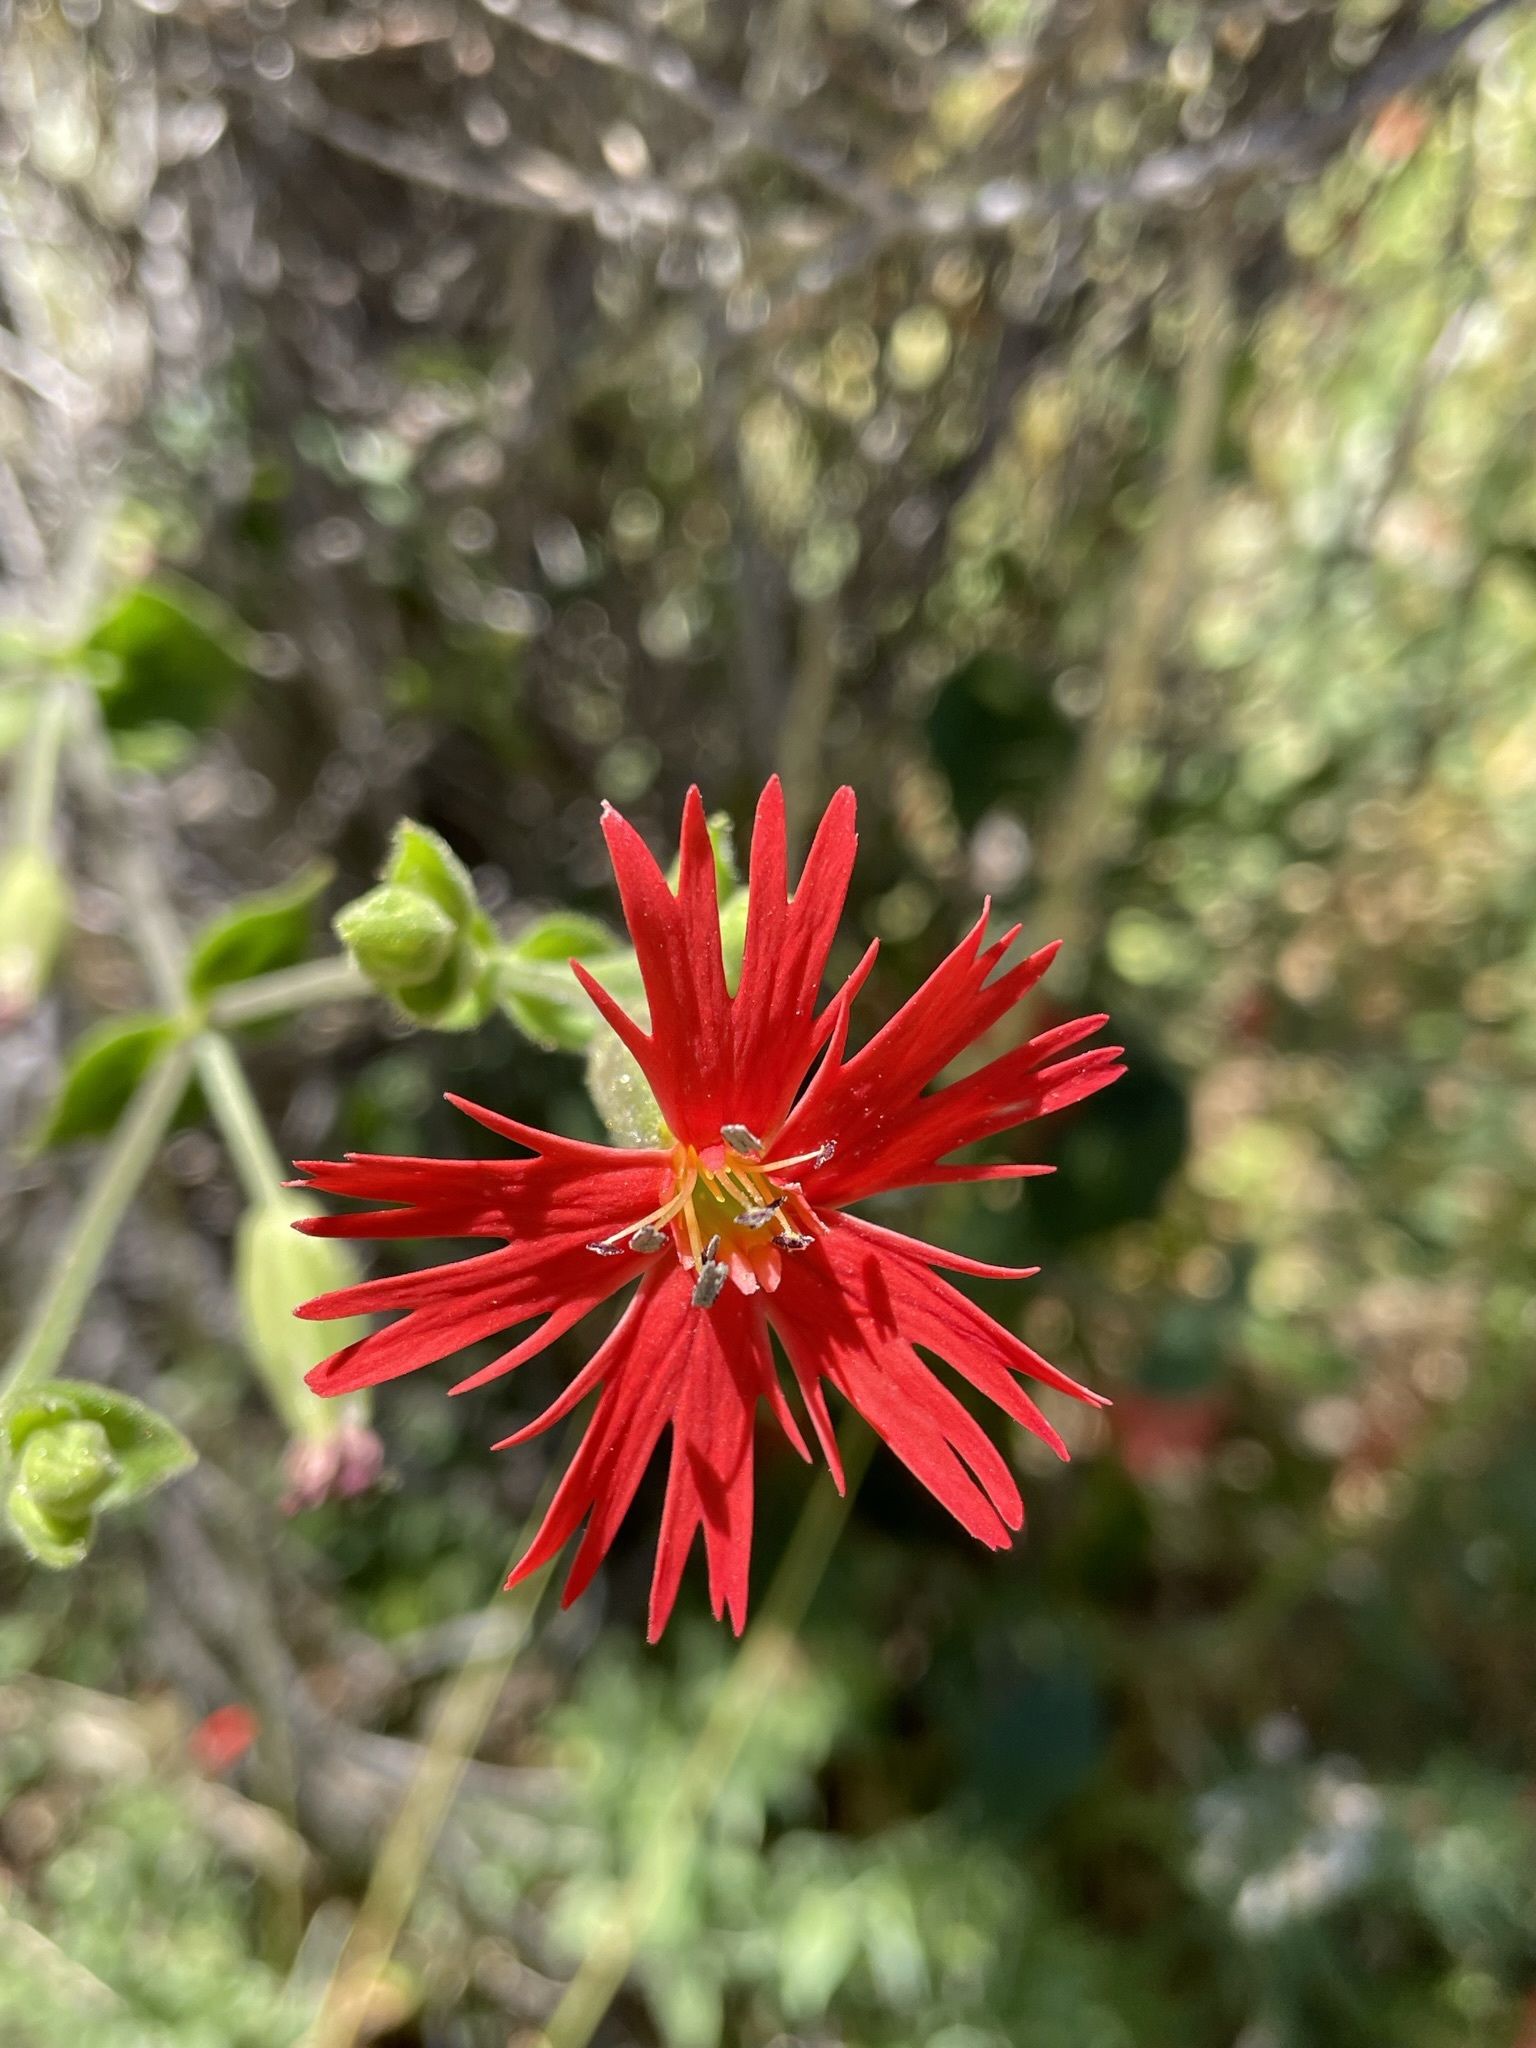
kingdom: Plantae
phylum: Tracheophyta
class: Magnoliopsida
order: Caryophyllales
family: Caryophyllaceae
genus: Silene
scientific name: Silene laciniata
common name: Indian-pink
